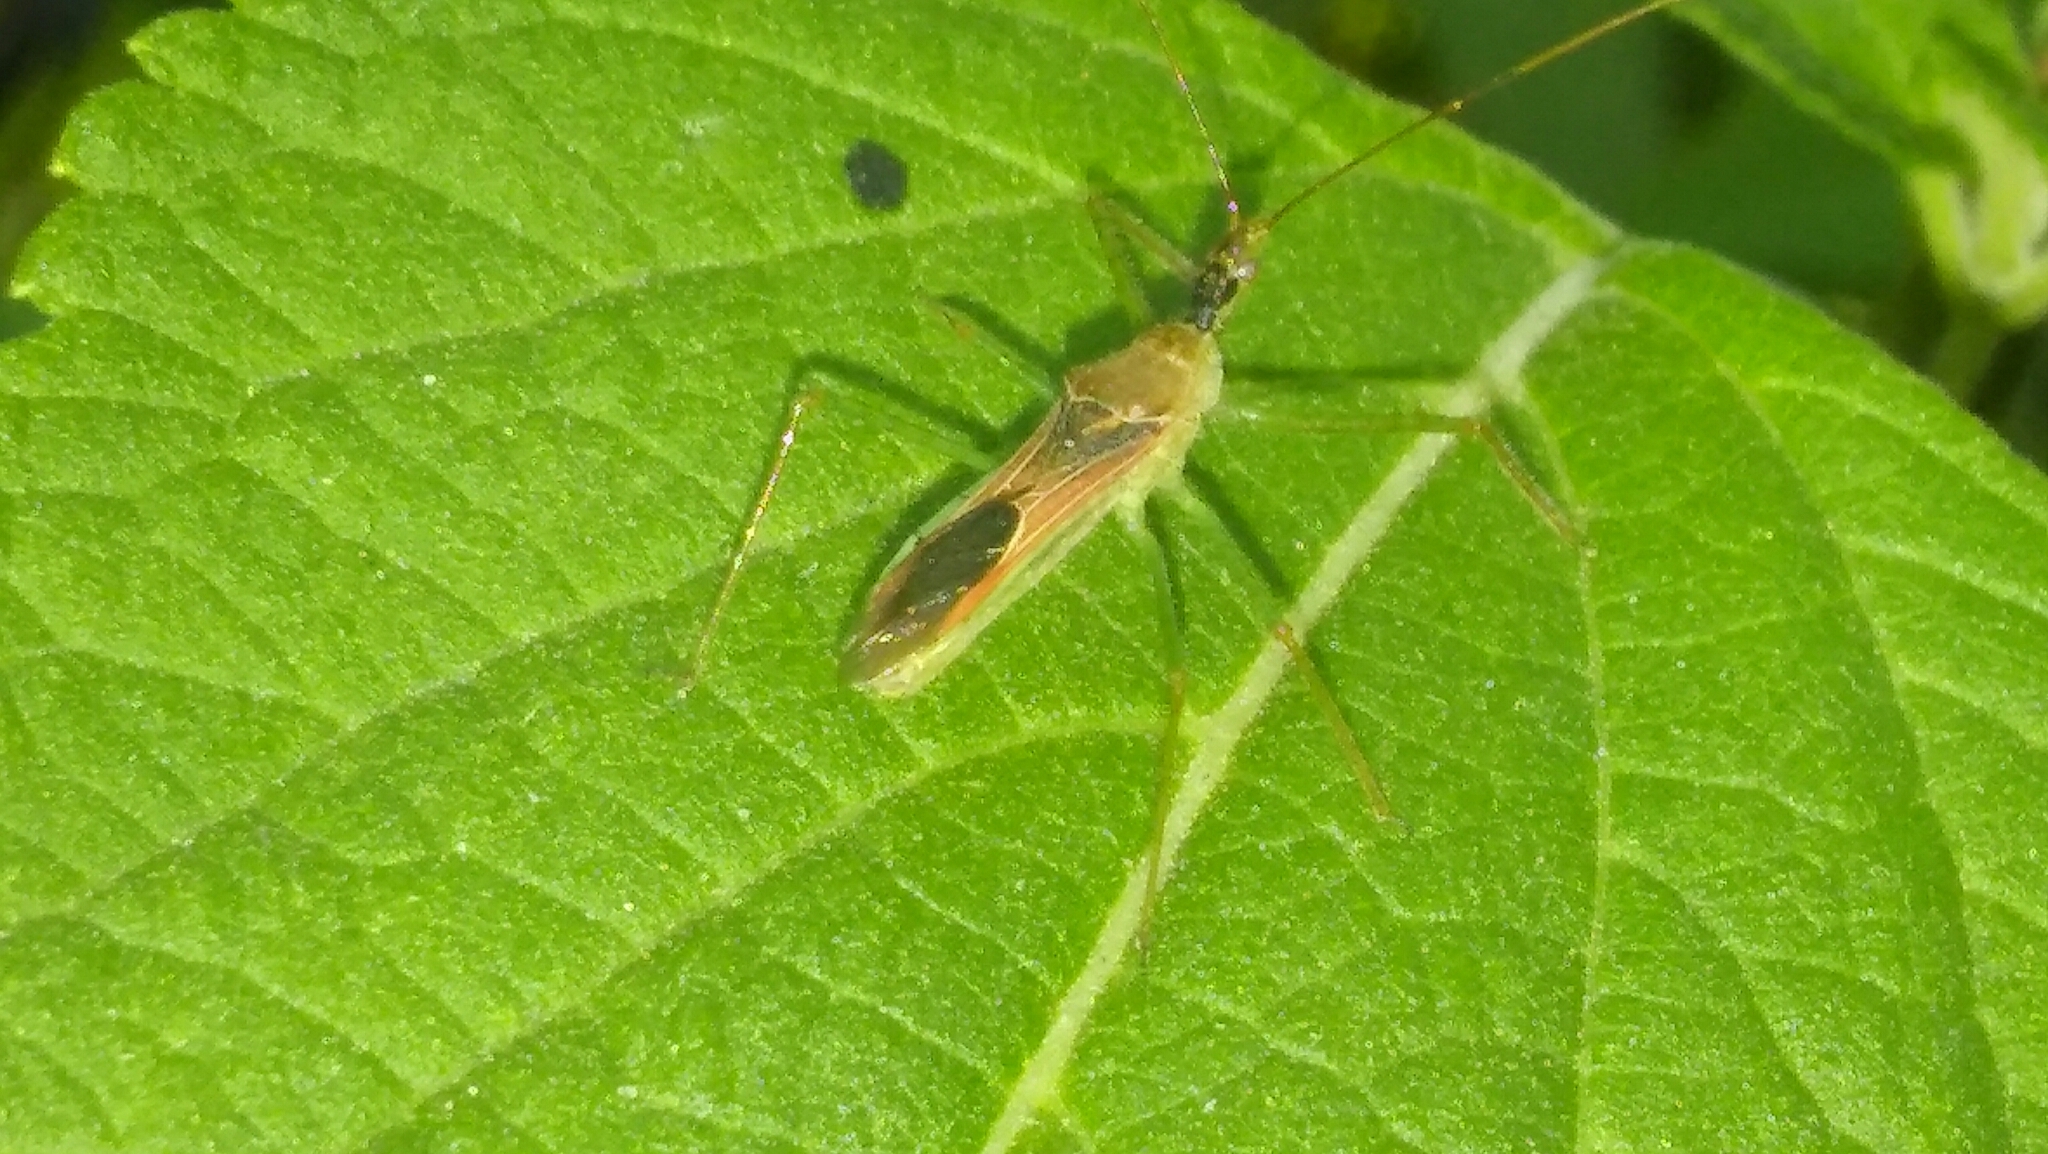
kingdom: Animalia
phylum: Arthropoda
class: Insecta
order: Hemiptera
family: Reduviidae
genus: Zelus
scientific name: Zelus renardii
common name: Assassin bug
